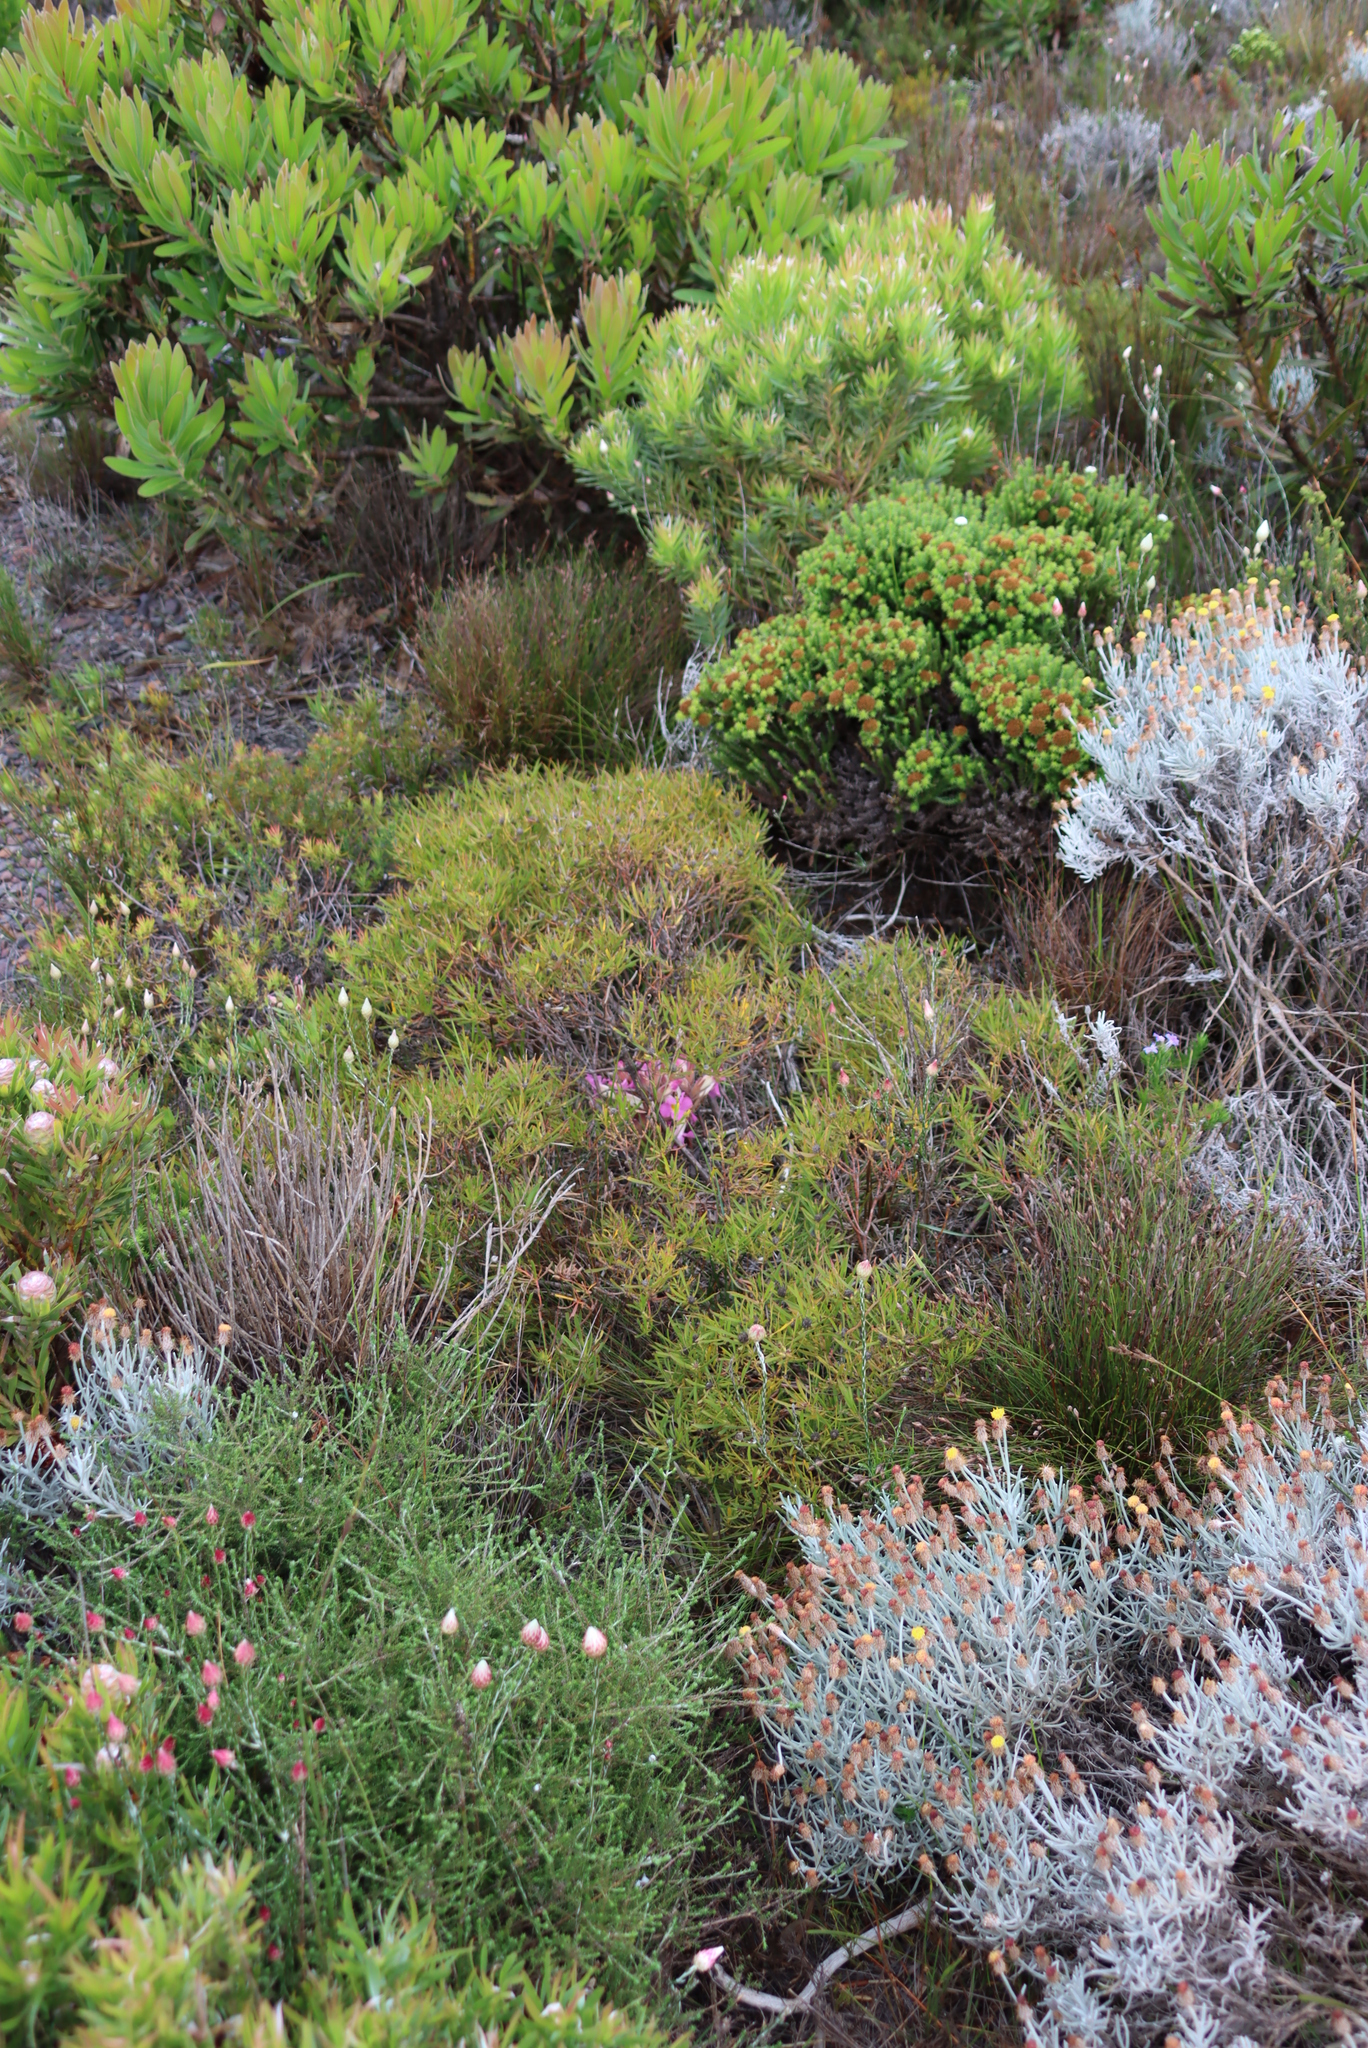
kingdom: Plantae
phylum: Tracheophyta
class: Magnoliopsida
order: Proteales
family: Proteaceae
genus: Leucadendron
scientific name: Leucadendron salignum
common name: Common sunshine conebush
